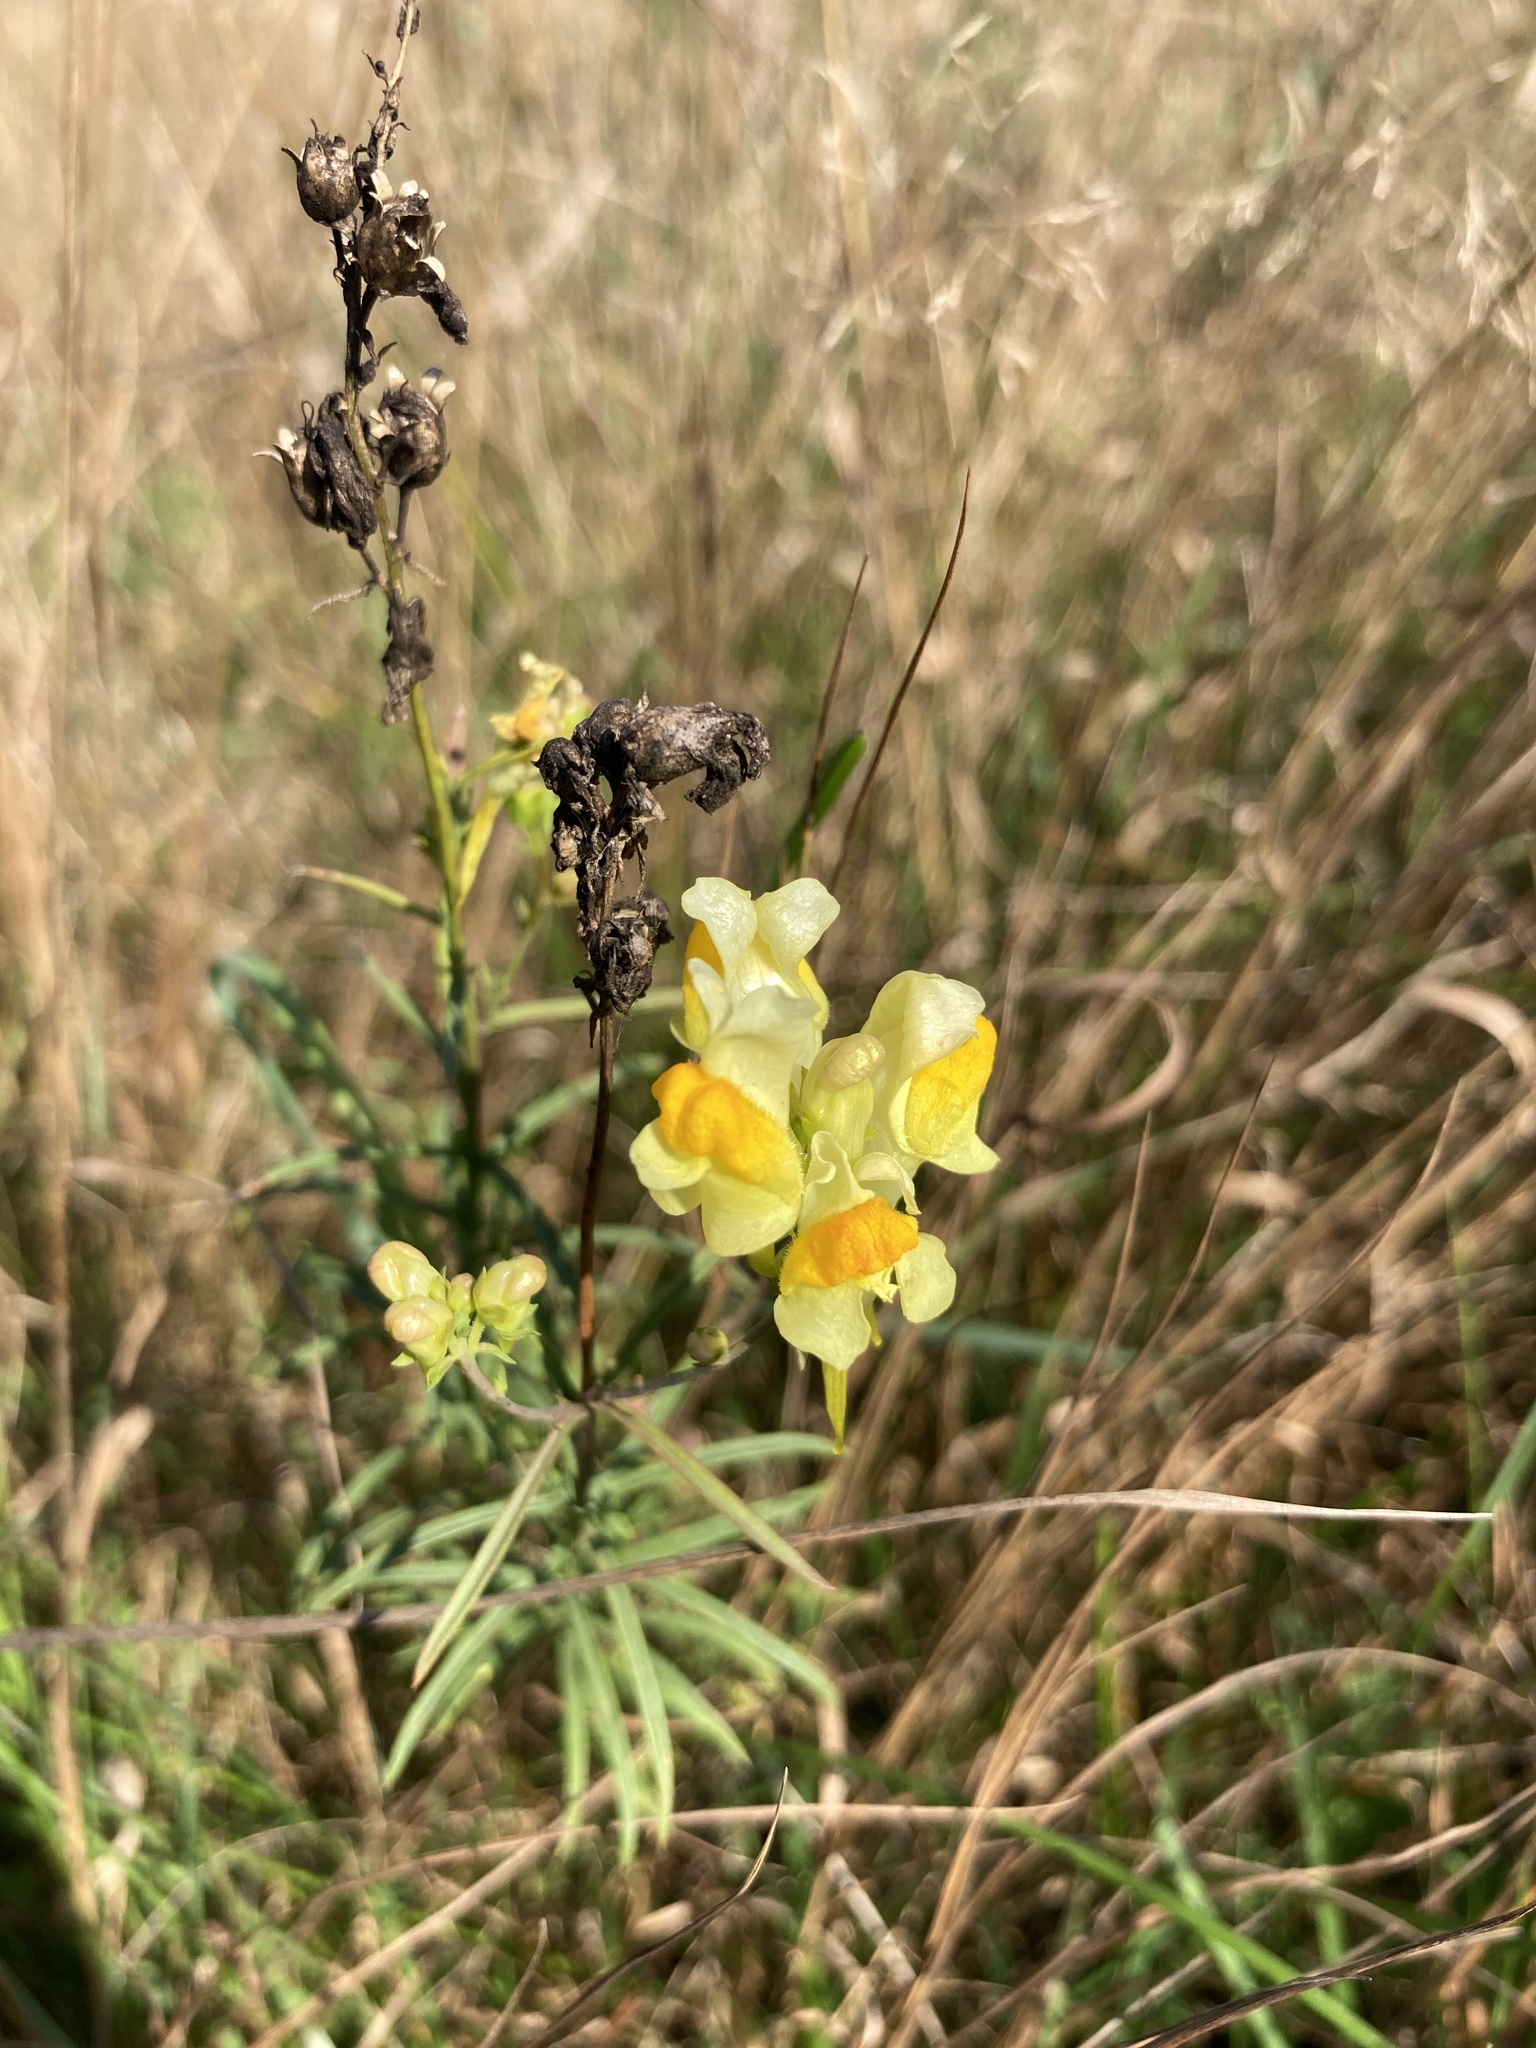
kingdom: Plantae
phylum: Tracheophyta
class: Magnoliopsida
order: Lamiales
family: Plantaginaceae
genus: Linaria
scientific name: Linaria vulgaris
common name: Butter and eggs
